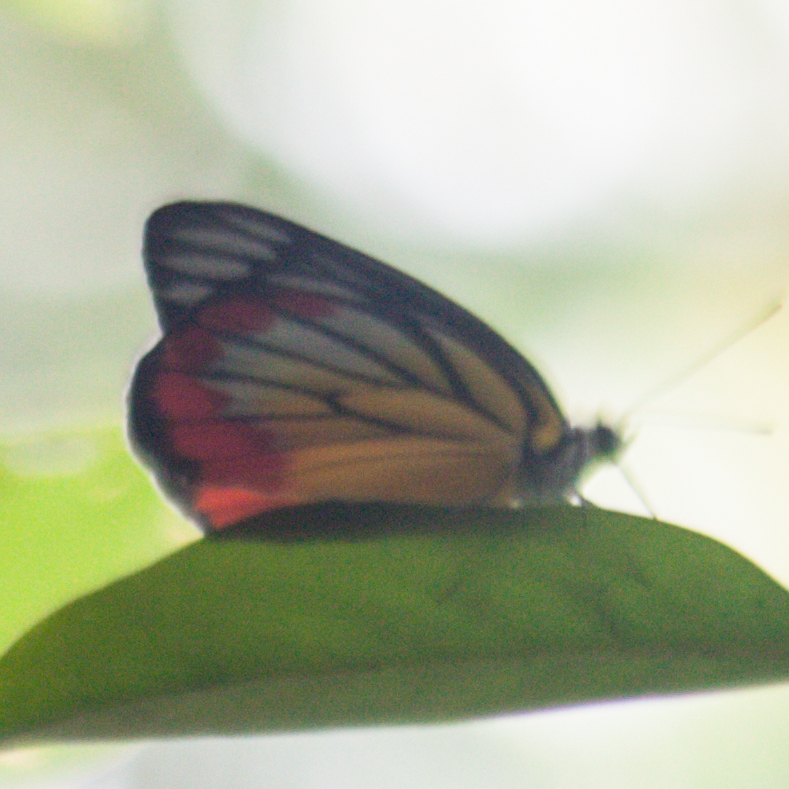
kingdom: Animalia
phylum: Arthropoda
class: Insecta
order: Lepidoptera
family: Pieridae
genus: Delias
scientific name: Delias hyparete
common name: Painted jezebel
